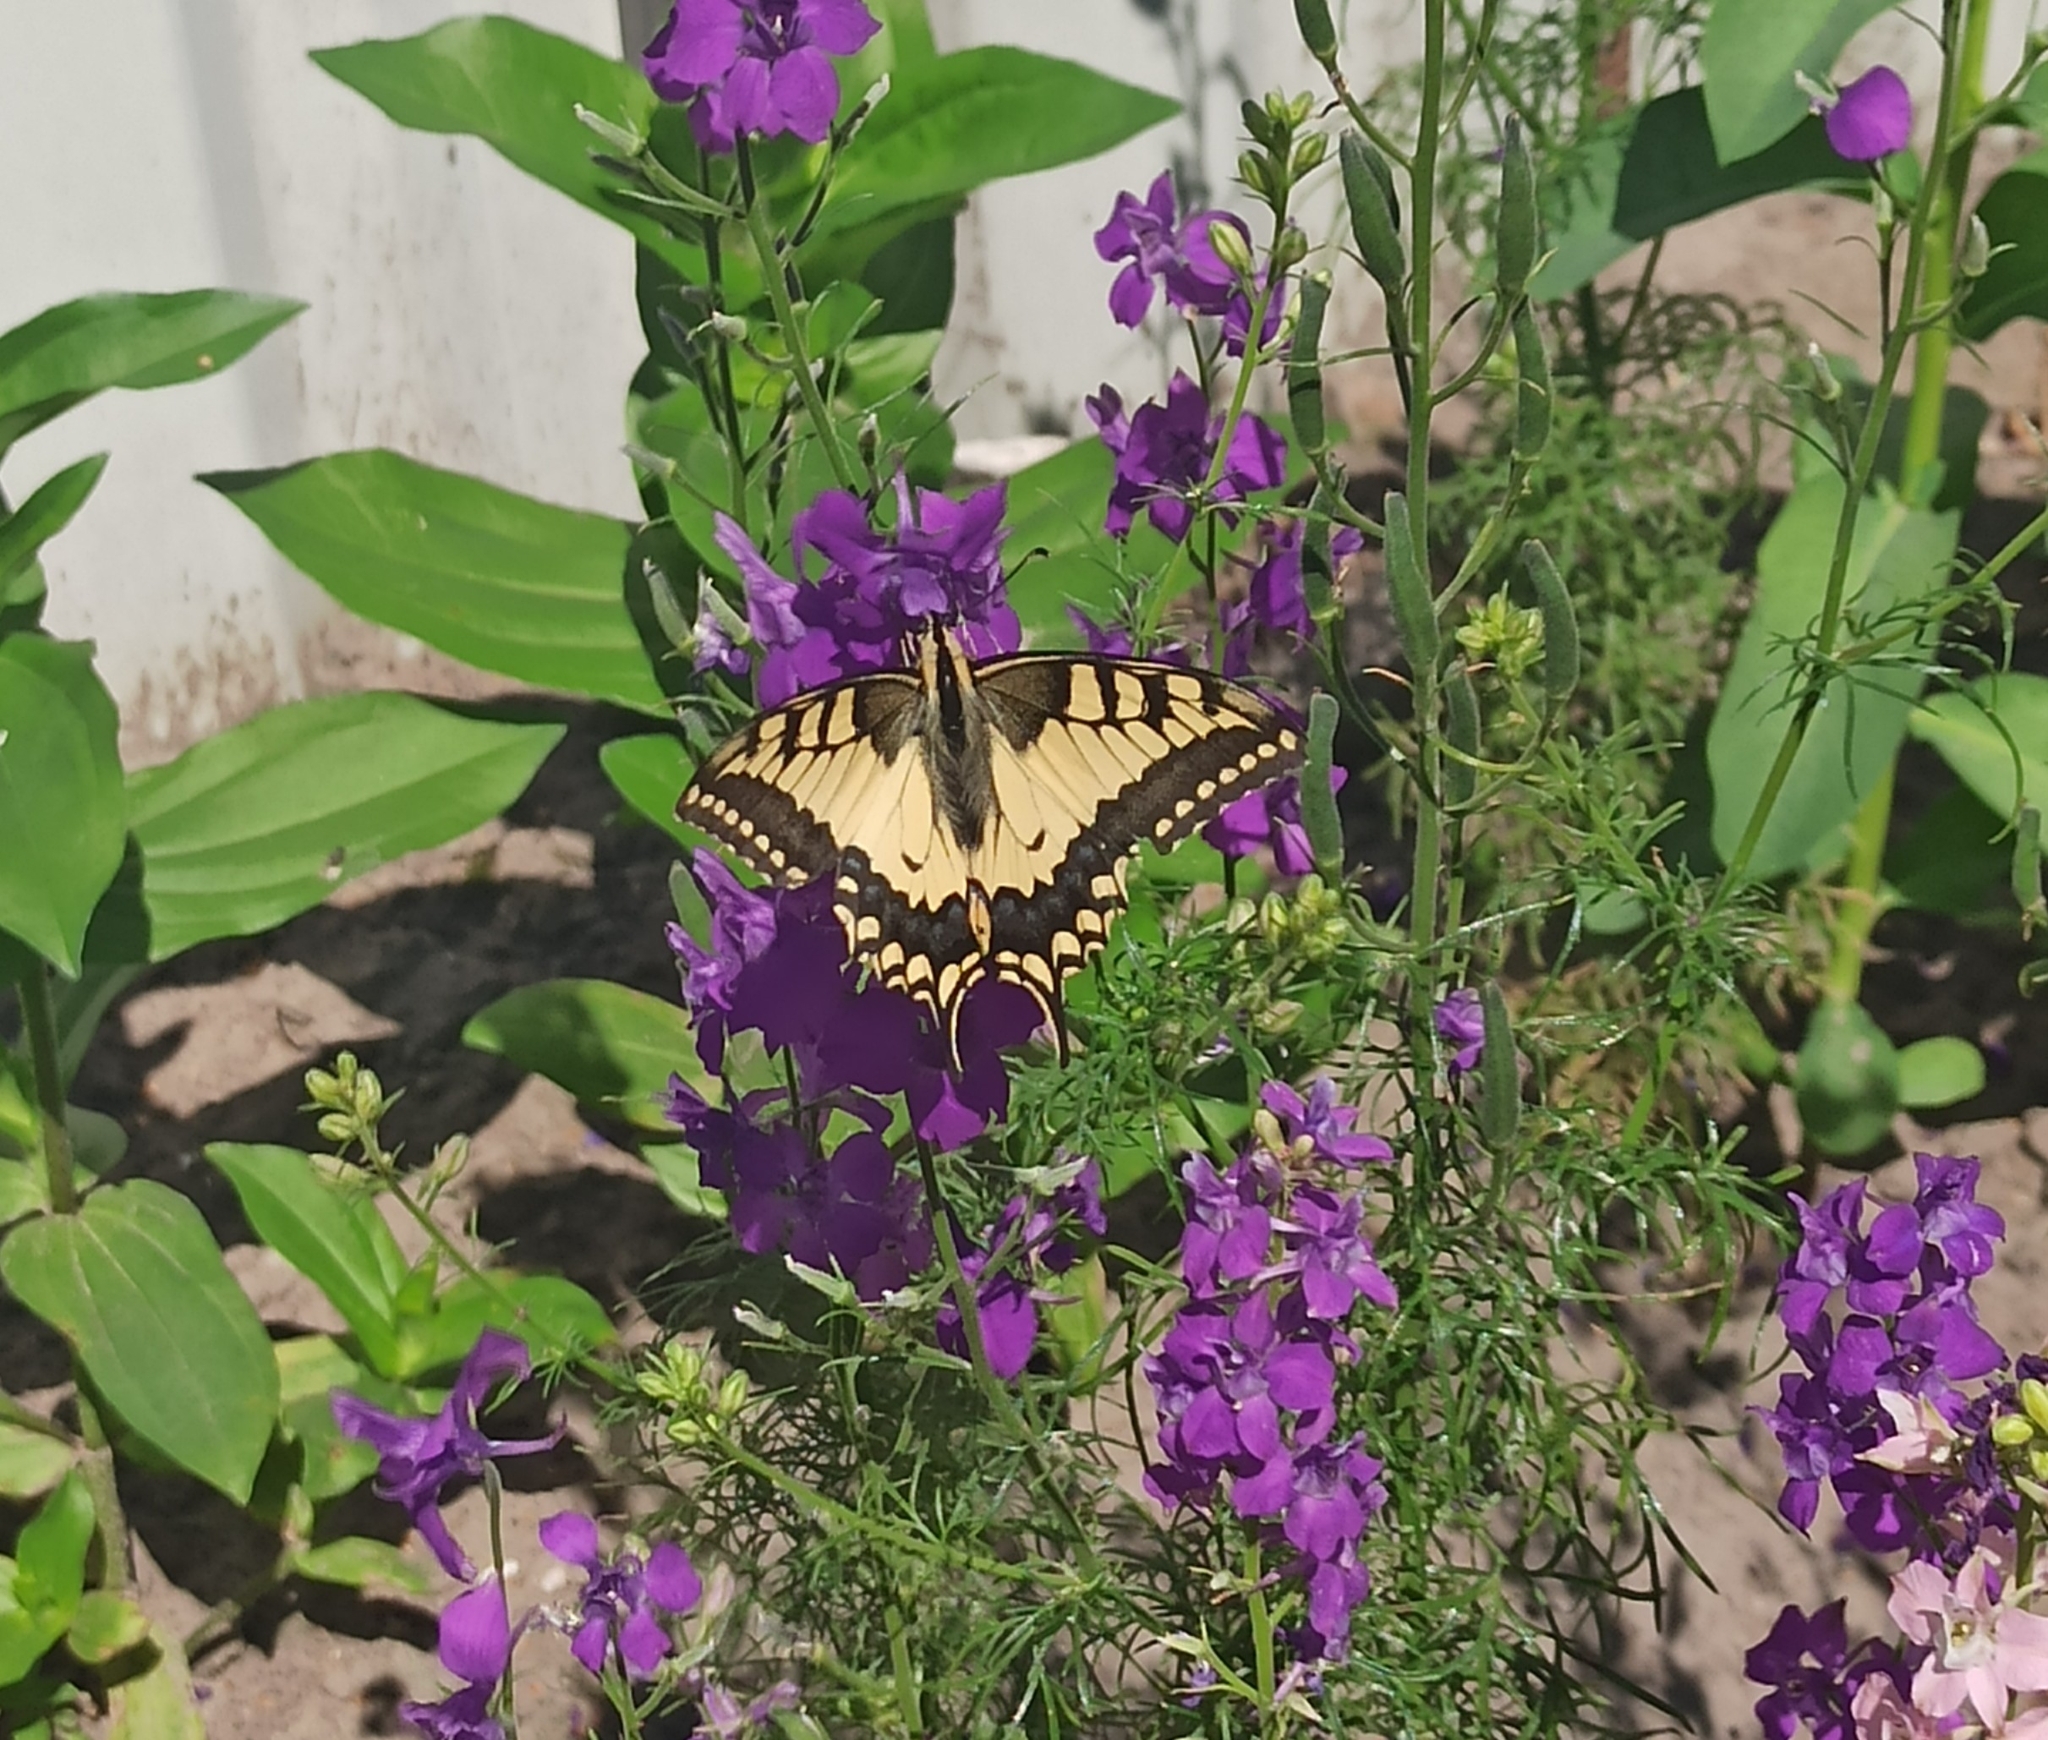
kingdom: Animalia
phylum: Arthropoda
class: Insecta
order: Lepidoptera
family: Papilionidae
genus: Papilio
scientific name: Papilio machaon
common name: Swallowtail
